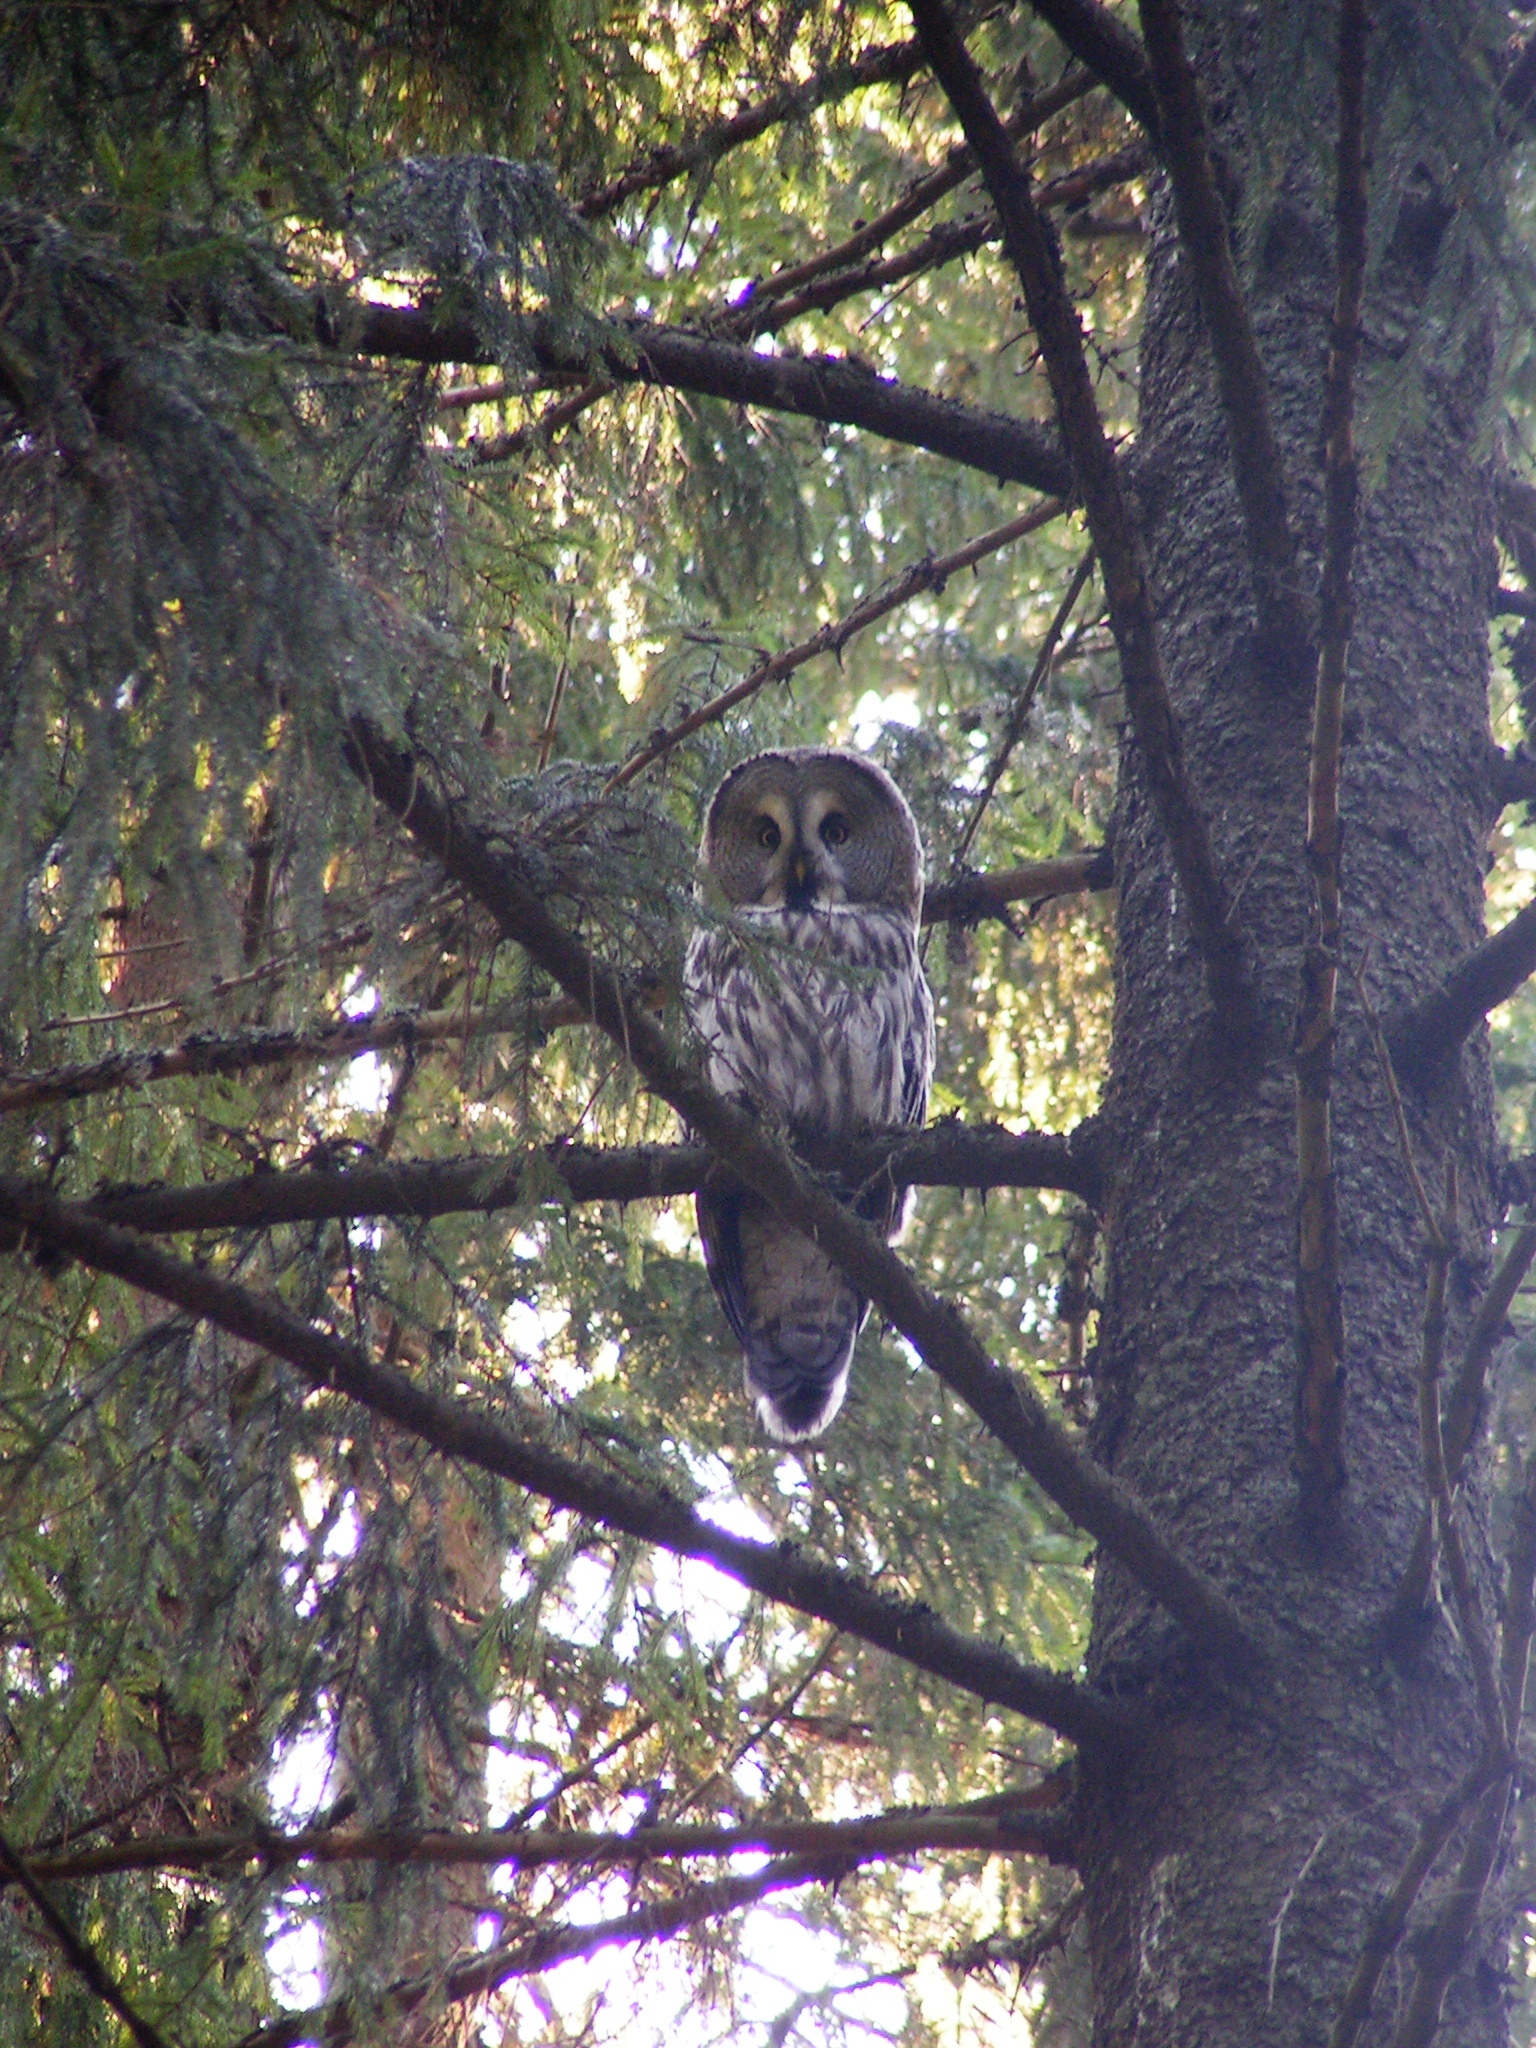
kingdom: Animalia
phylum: Chordata
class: Aves
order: Strigiformes
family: Strigidae
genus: Strix
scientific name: Strix nebulosa
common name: Great grey owl
